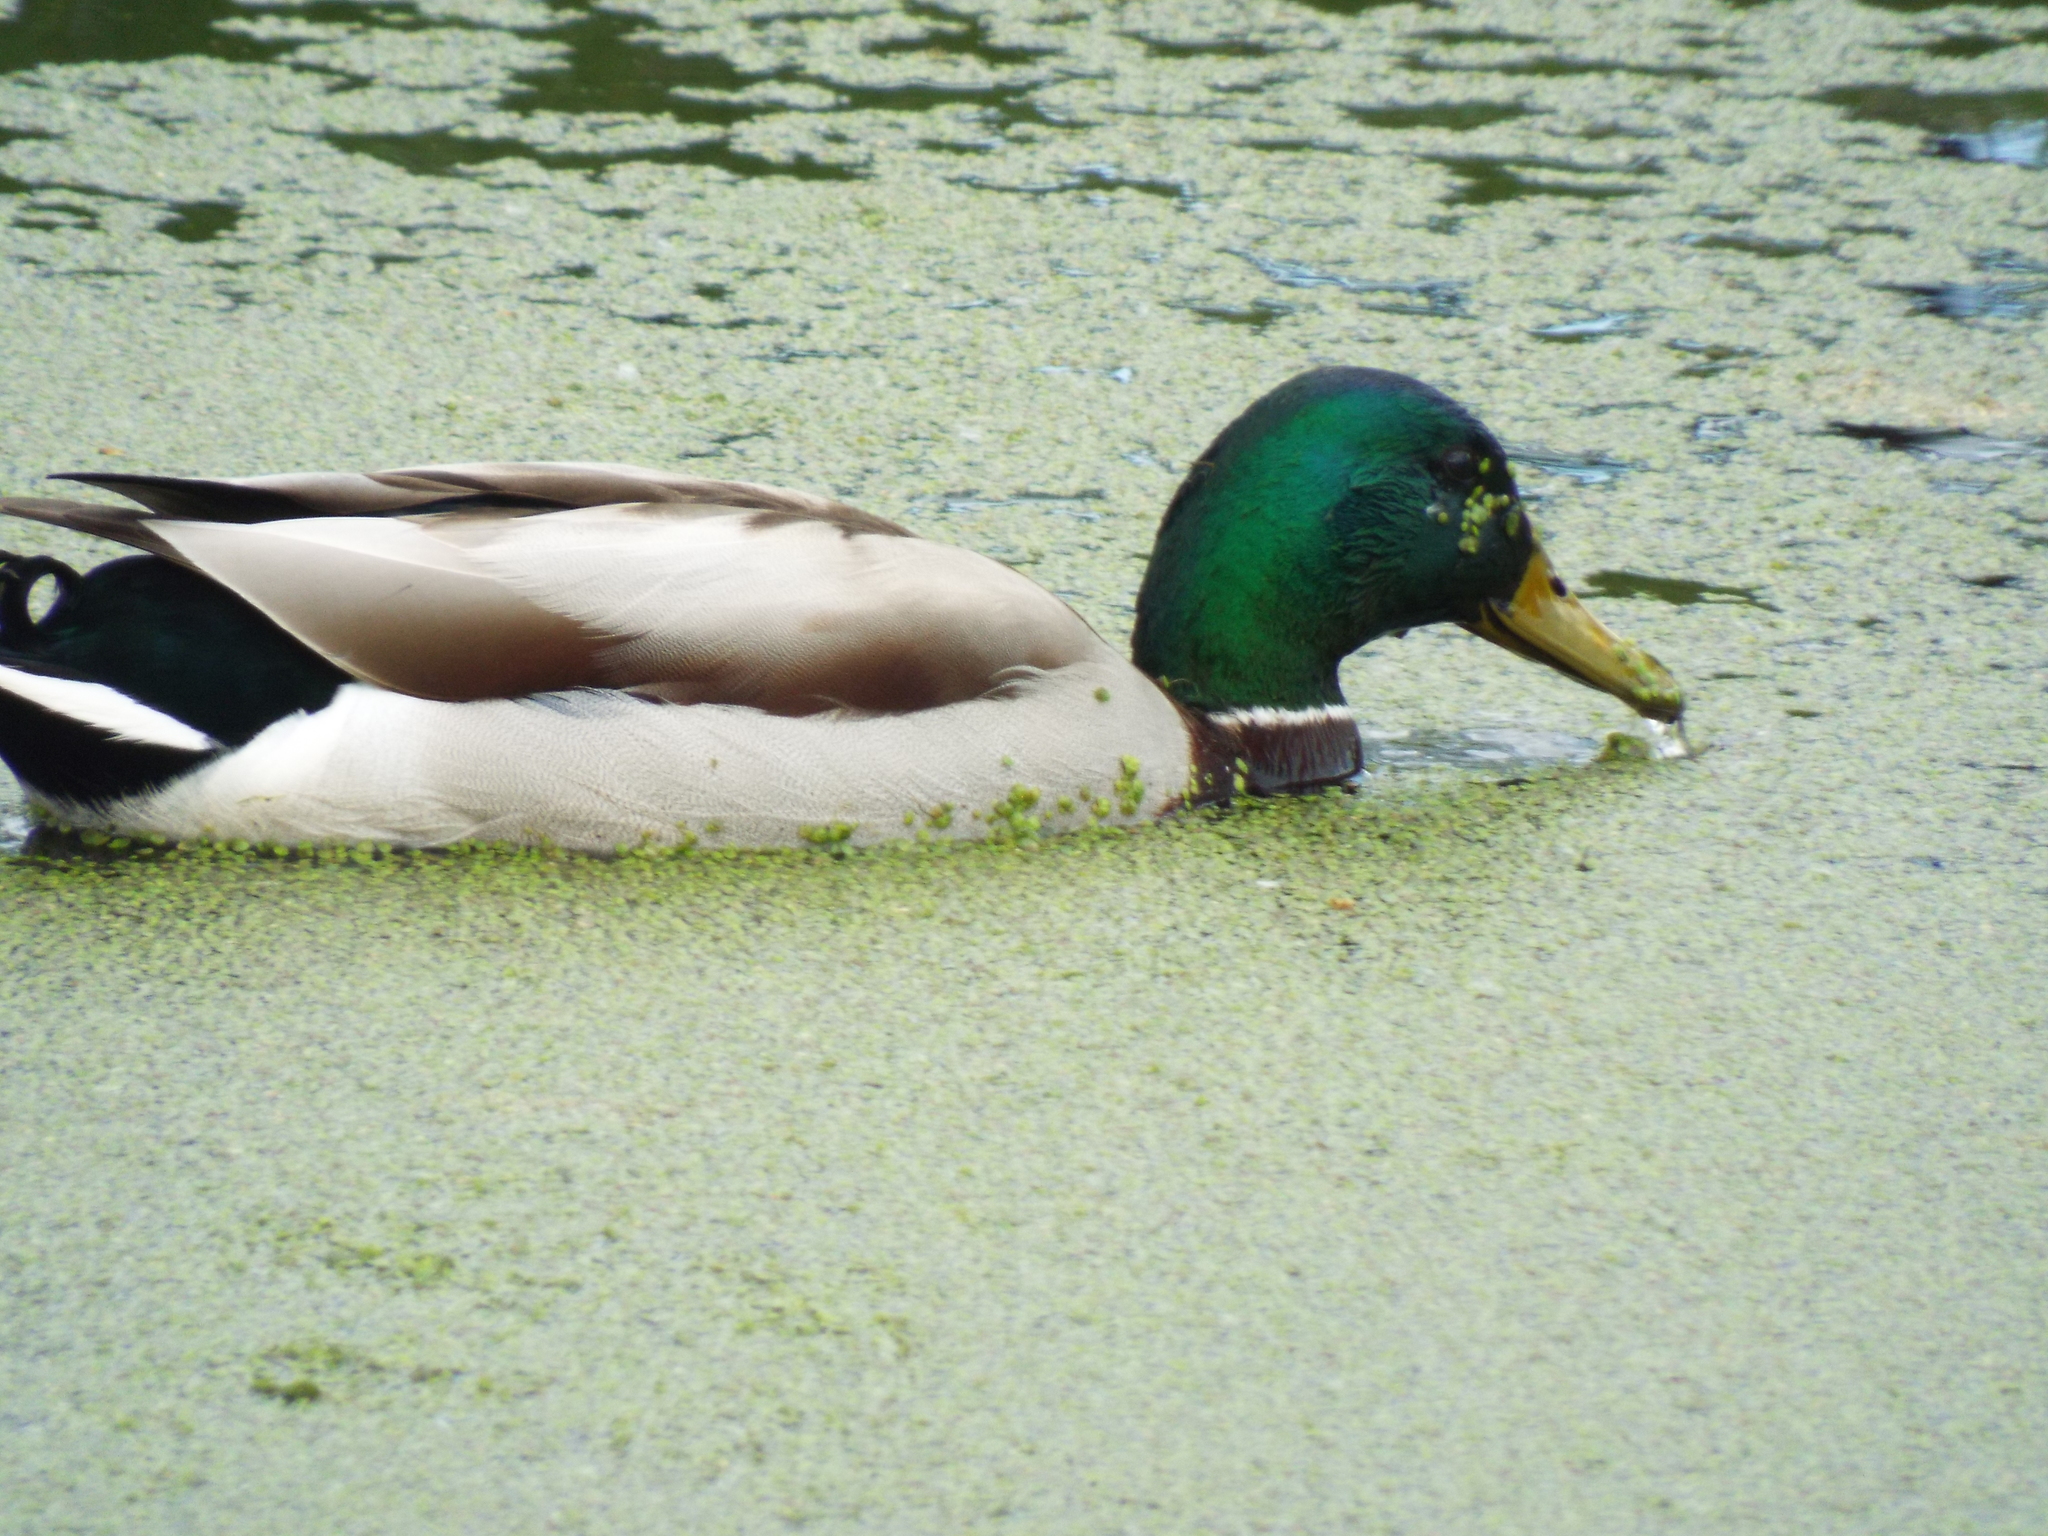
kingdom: Animalia
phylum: Chordata
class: Aves
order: Anseriformes
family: Anatidae
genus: Anas
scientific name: Anas platyrhynchos
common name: Mallard
